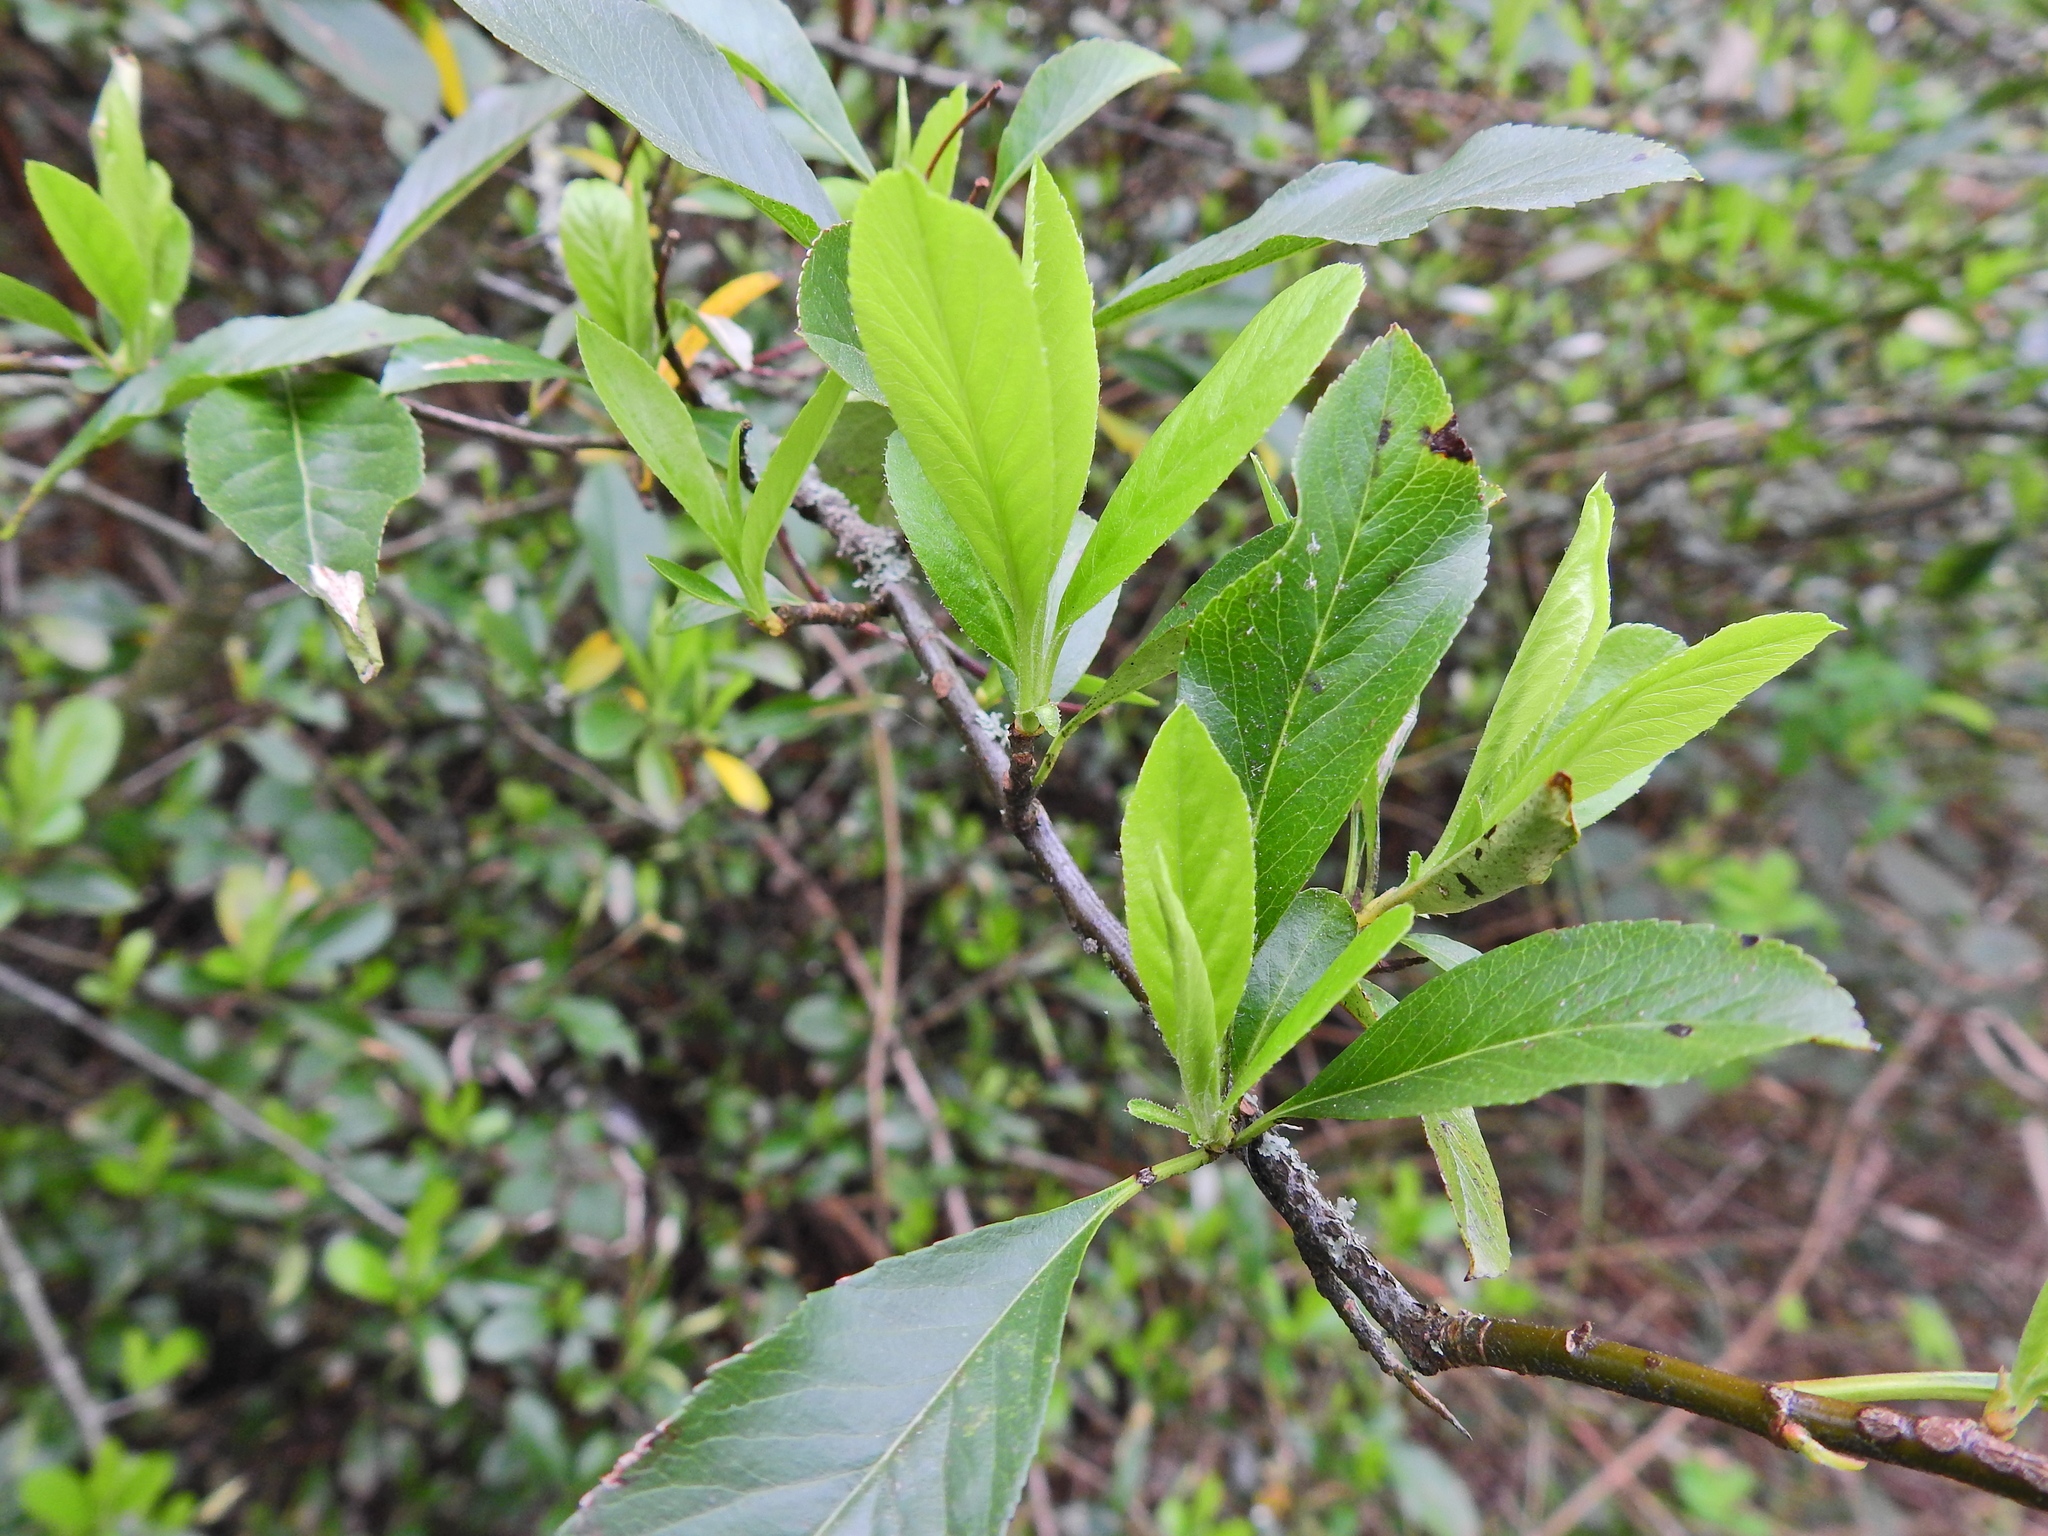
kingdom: Plantae
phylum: Tracheophyta
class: Magnoliopsida
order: Rosales
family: Rosaceae
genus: Pyracantha
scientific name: Pyracantha coccinea
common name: Firethorn
